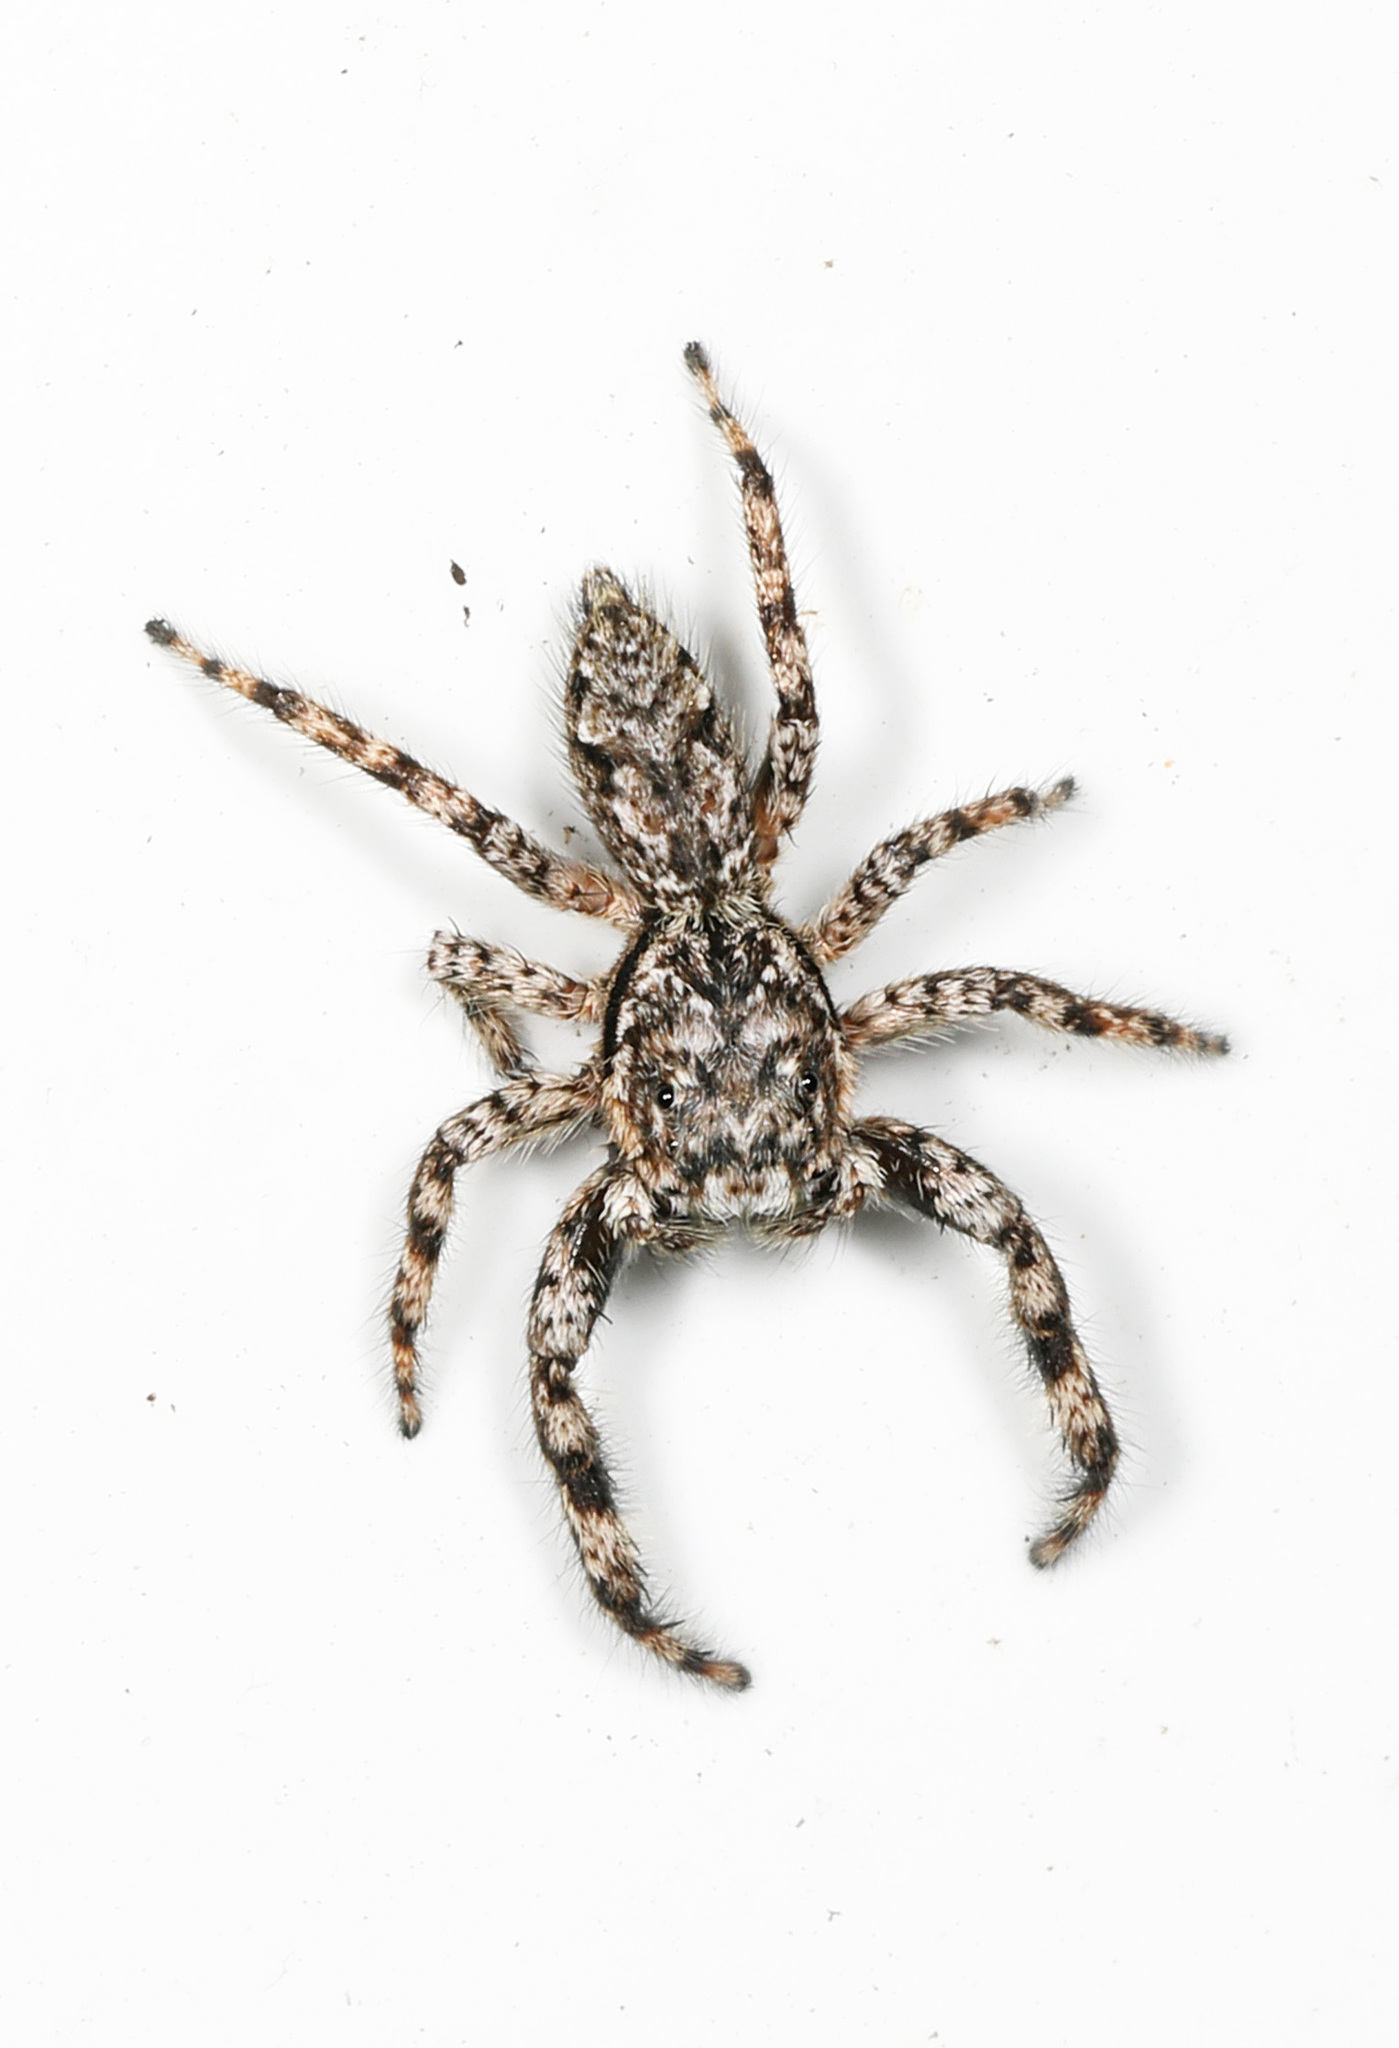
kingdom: Animalia
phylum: Arthropoda
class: Arachnida
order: Araneae
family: Salticidae
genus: Platycryptus
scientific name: Platycryptus undatus
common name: Tan jumping spider
